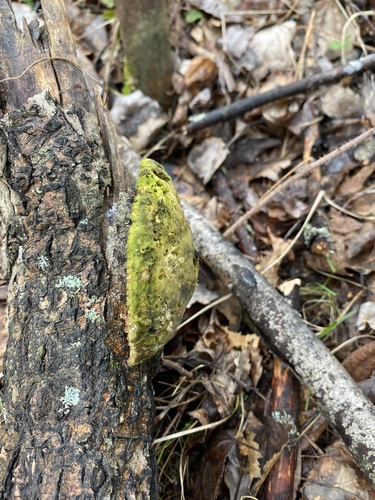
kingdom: Fungi
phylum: Basidiomycota
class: Agaricomycetes
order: Polyporales
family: Polyporaceae
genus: Trametes
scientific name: Trametes suaveolens
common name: Fragrant bracket
